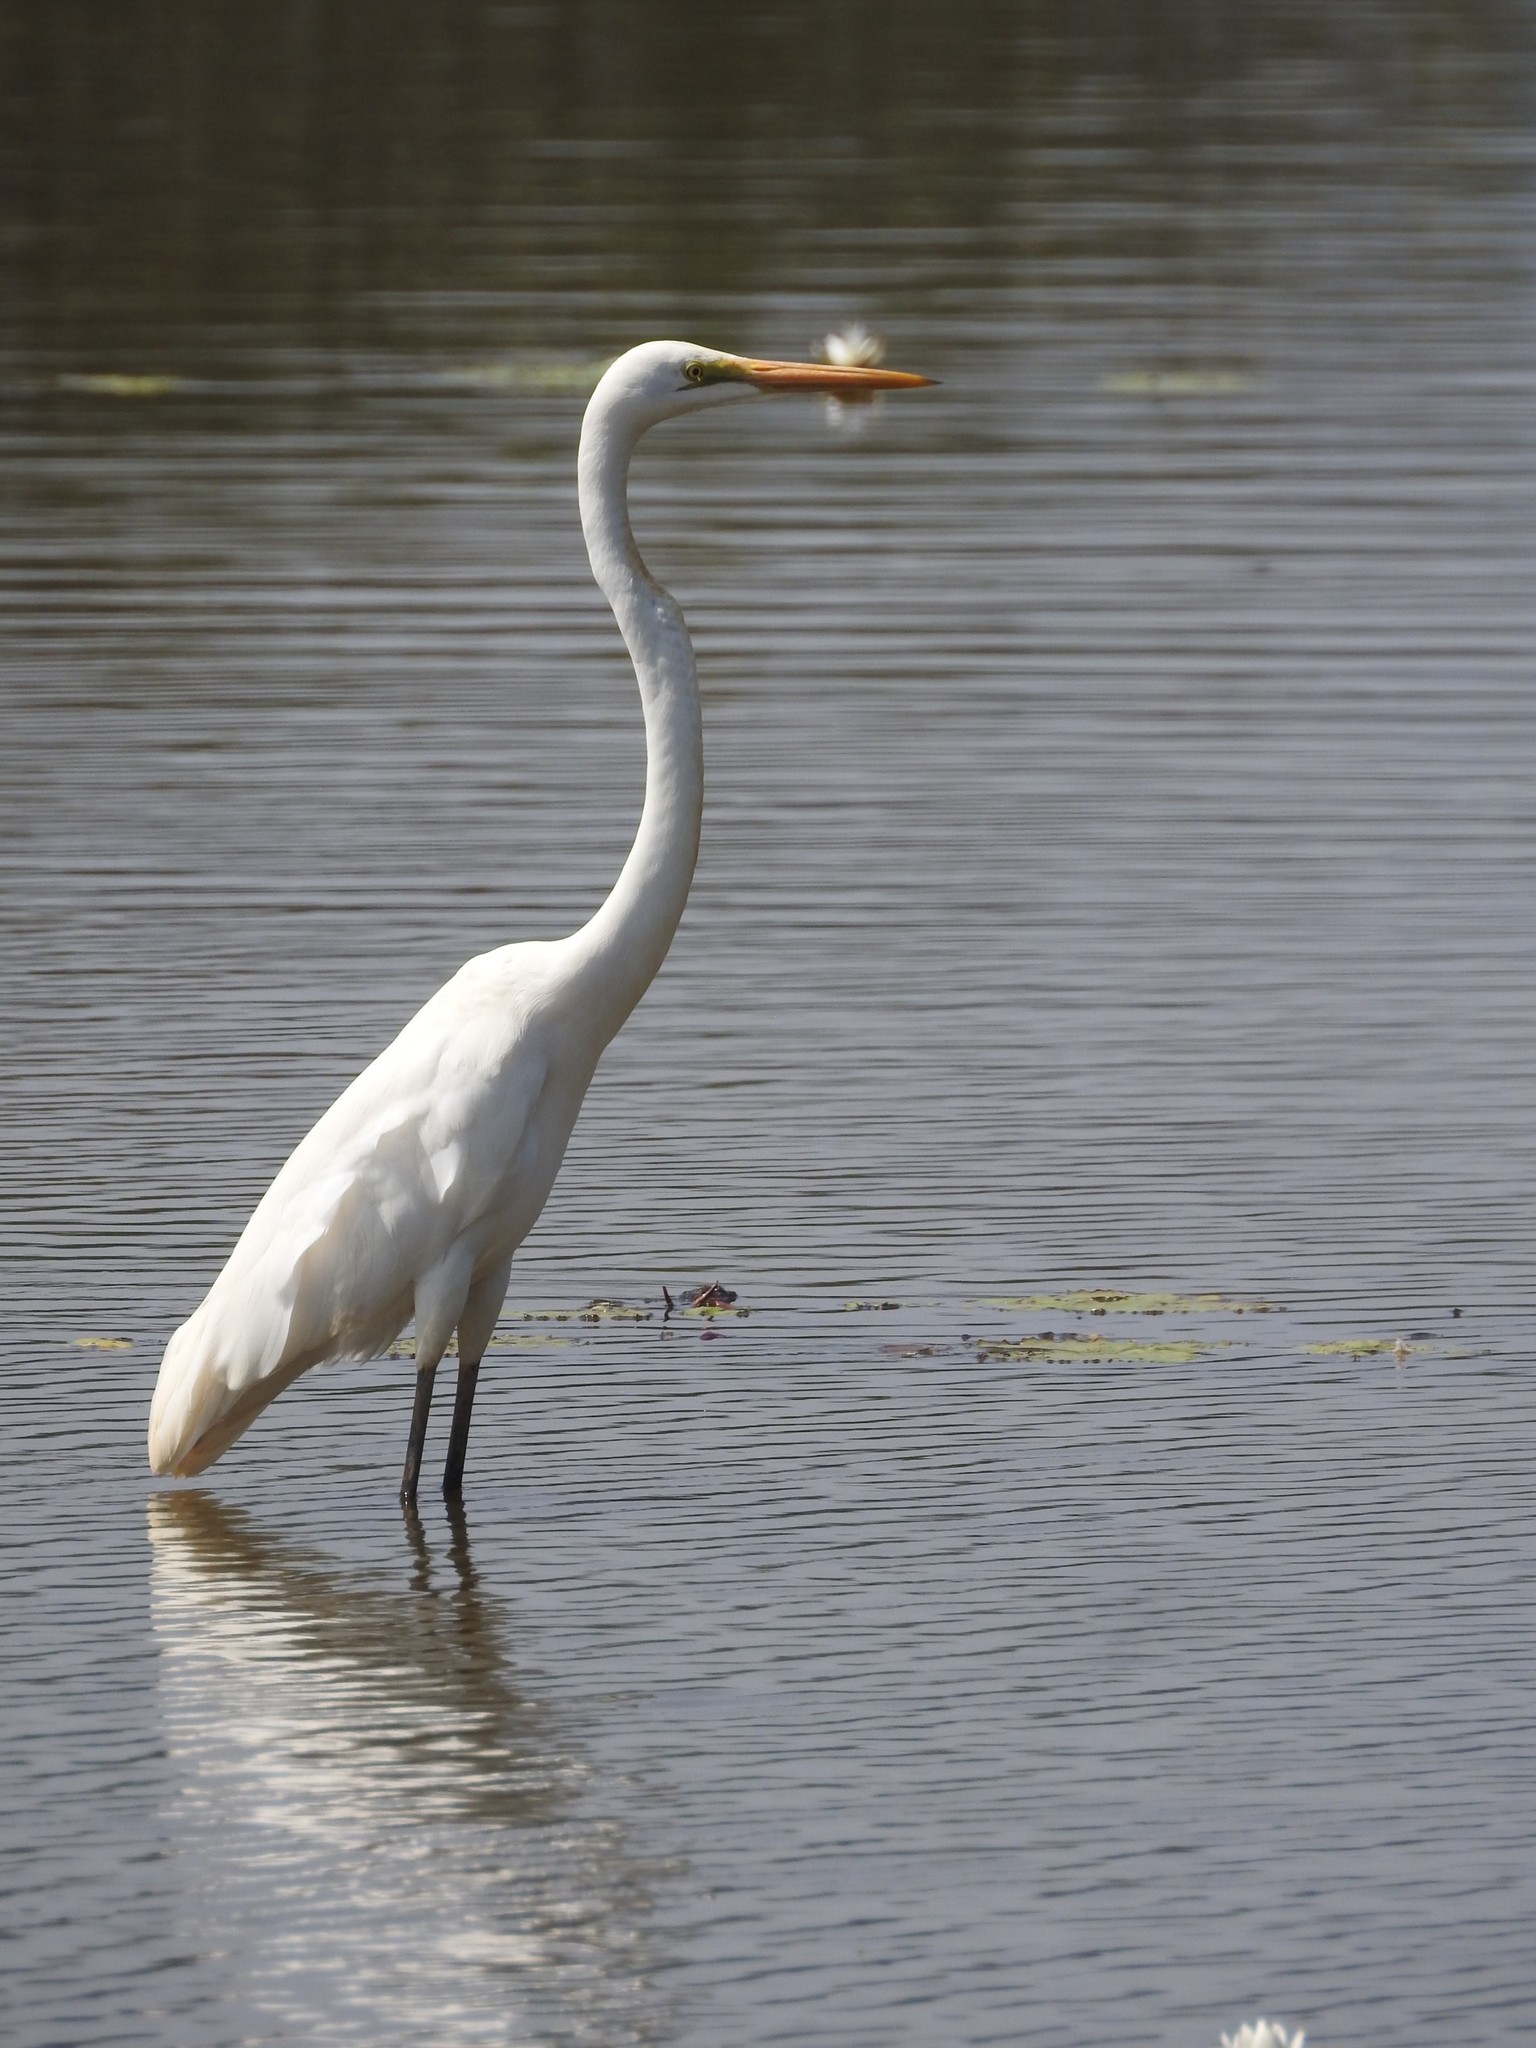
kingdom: Animalia
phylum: Chordata
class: Aves
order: Pelecaniformes
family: Ardeidae
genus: Ardea
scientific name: Ardea alba
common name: Great egret
